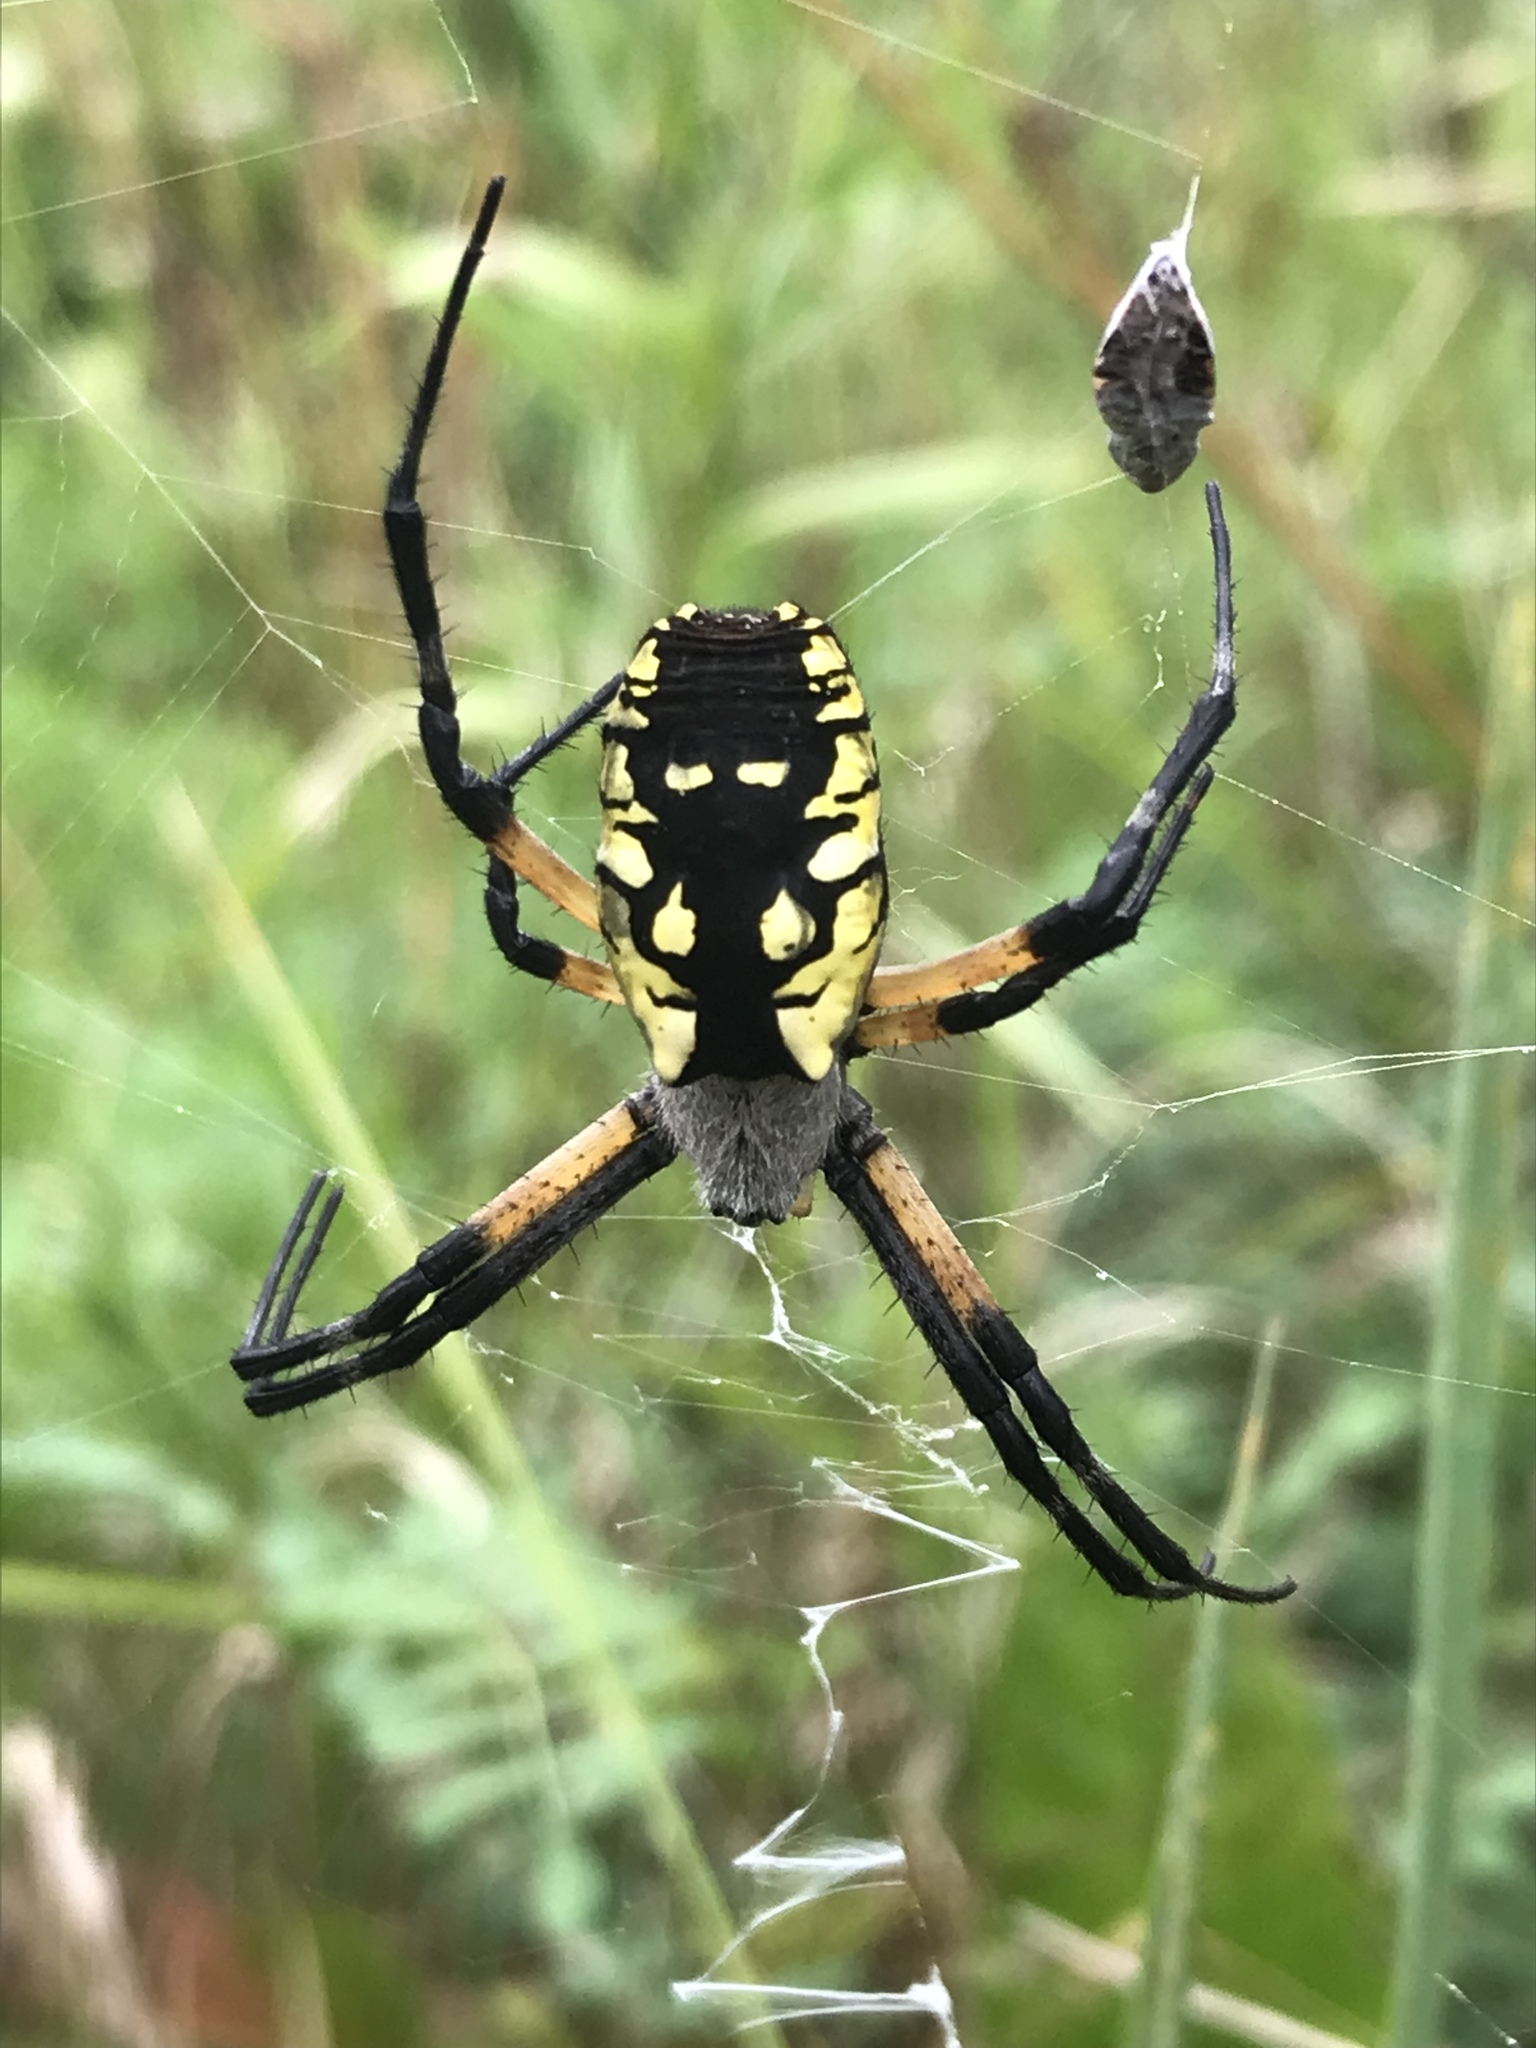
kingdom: Animalia
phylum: Arthropoda
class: Arachnida
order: Araneae
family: Araneidae
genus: Argiope
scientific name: Argiope aurantia
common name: Orb weavers
